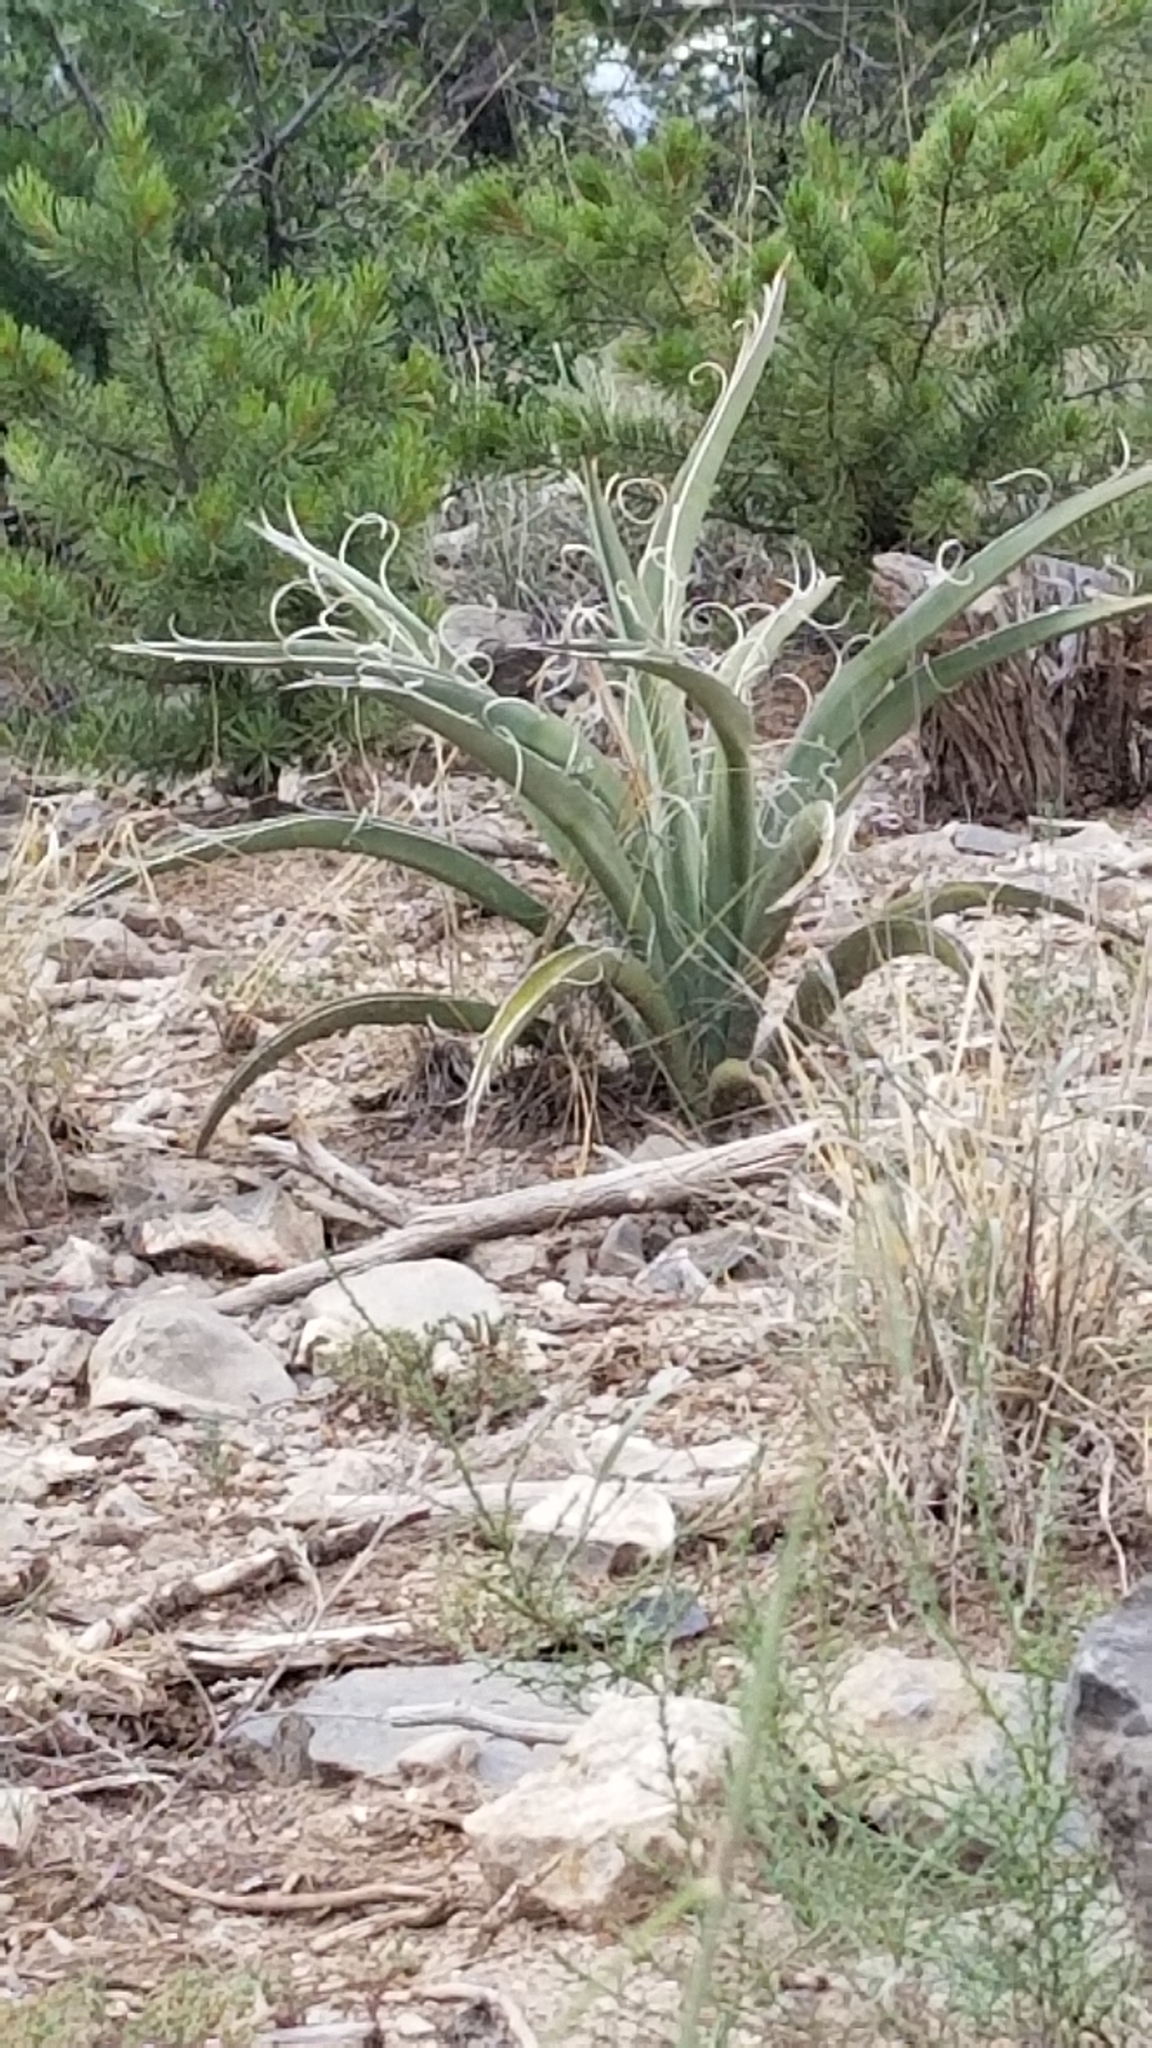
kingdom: Plantae
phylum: Tracheophyta
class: Liliopsida
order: Asparagales
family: Asparagaceae
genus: Yucca
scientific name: Yucca baccata
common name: Banana yucca
